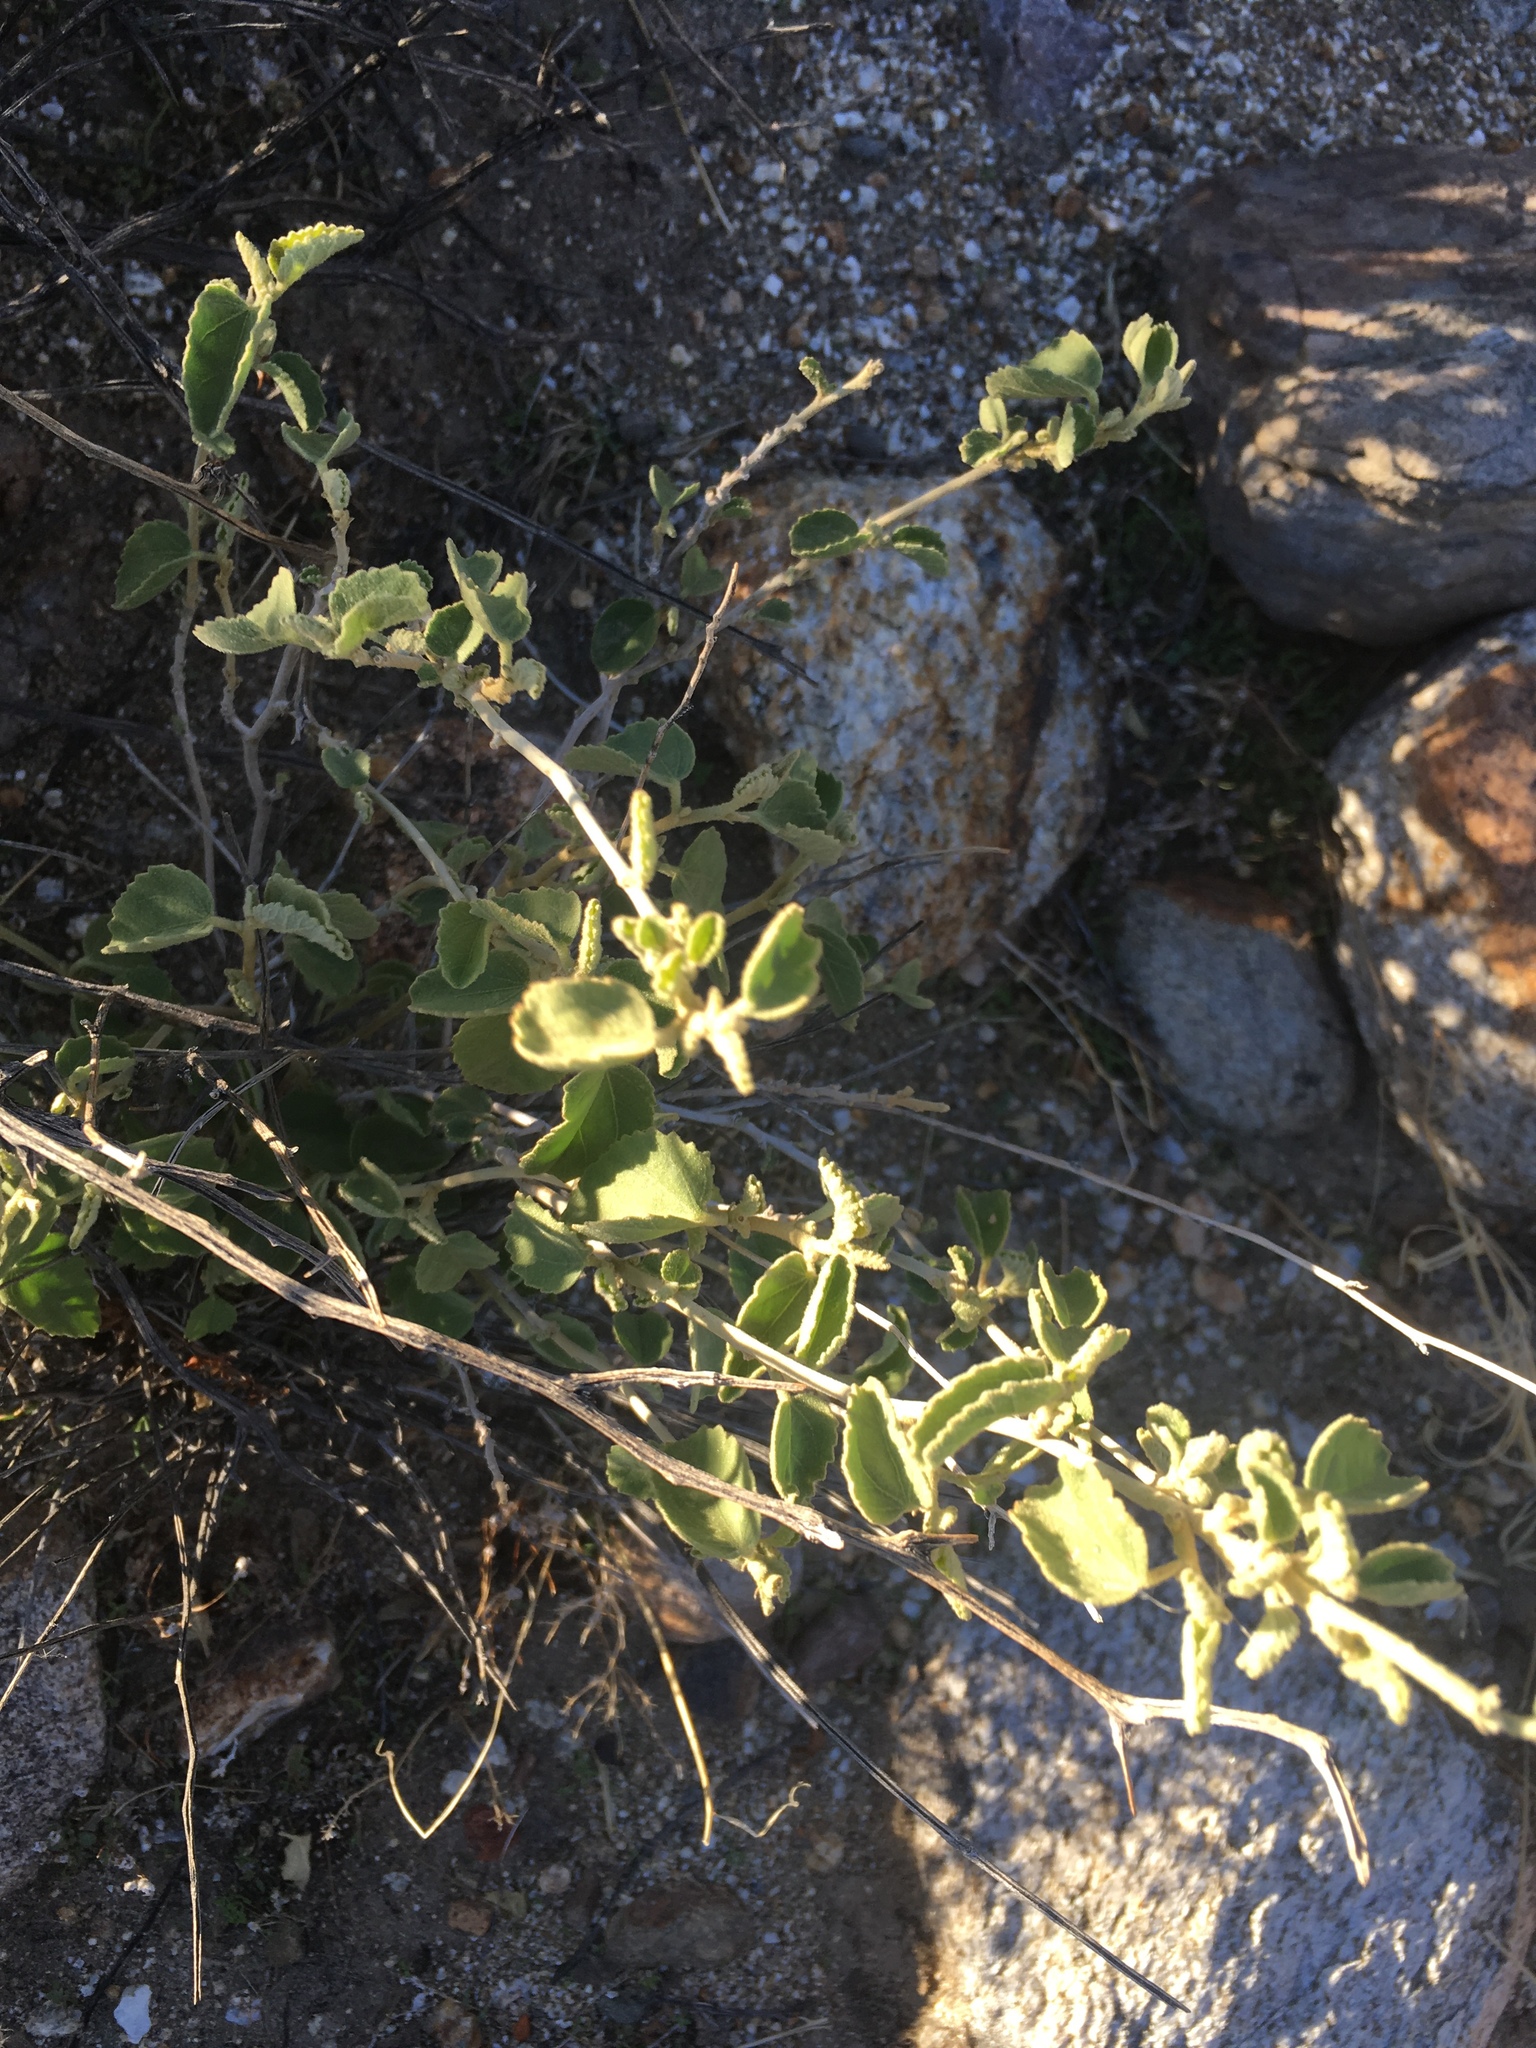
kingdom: Plantae
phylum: Tracheophyta
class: Magnoliopsida
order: Malvales
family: Malvaceae
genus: Hibiscus
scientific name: Hibiscus denudatus
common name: Paleface
